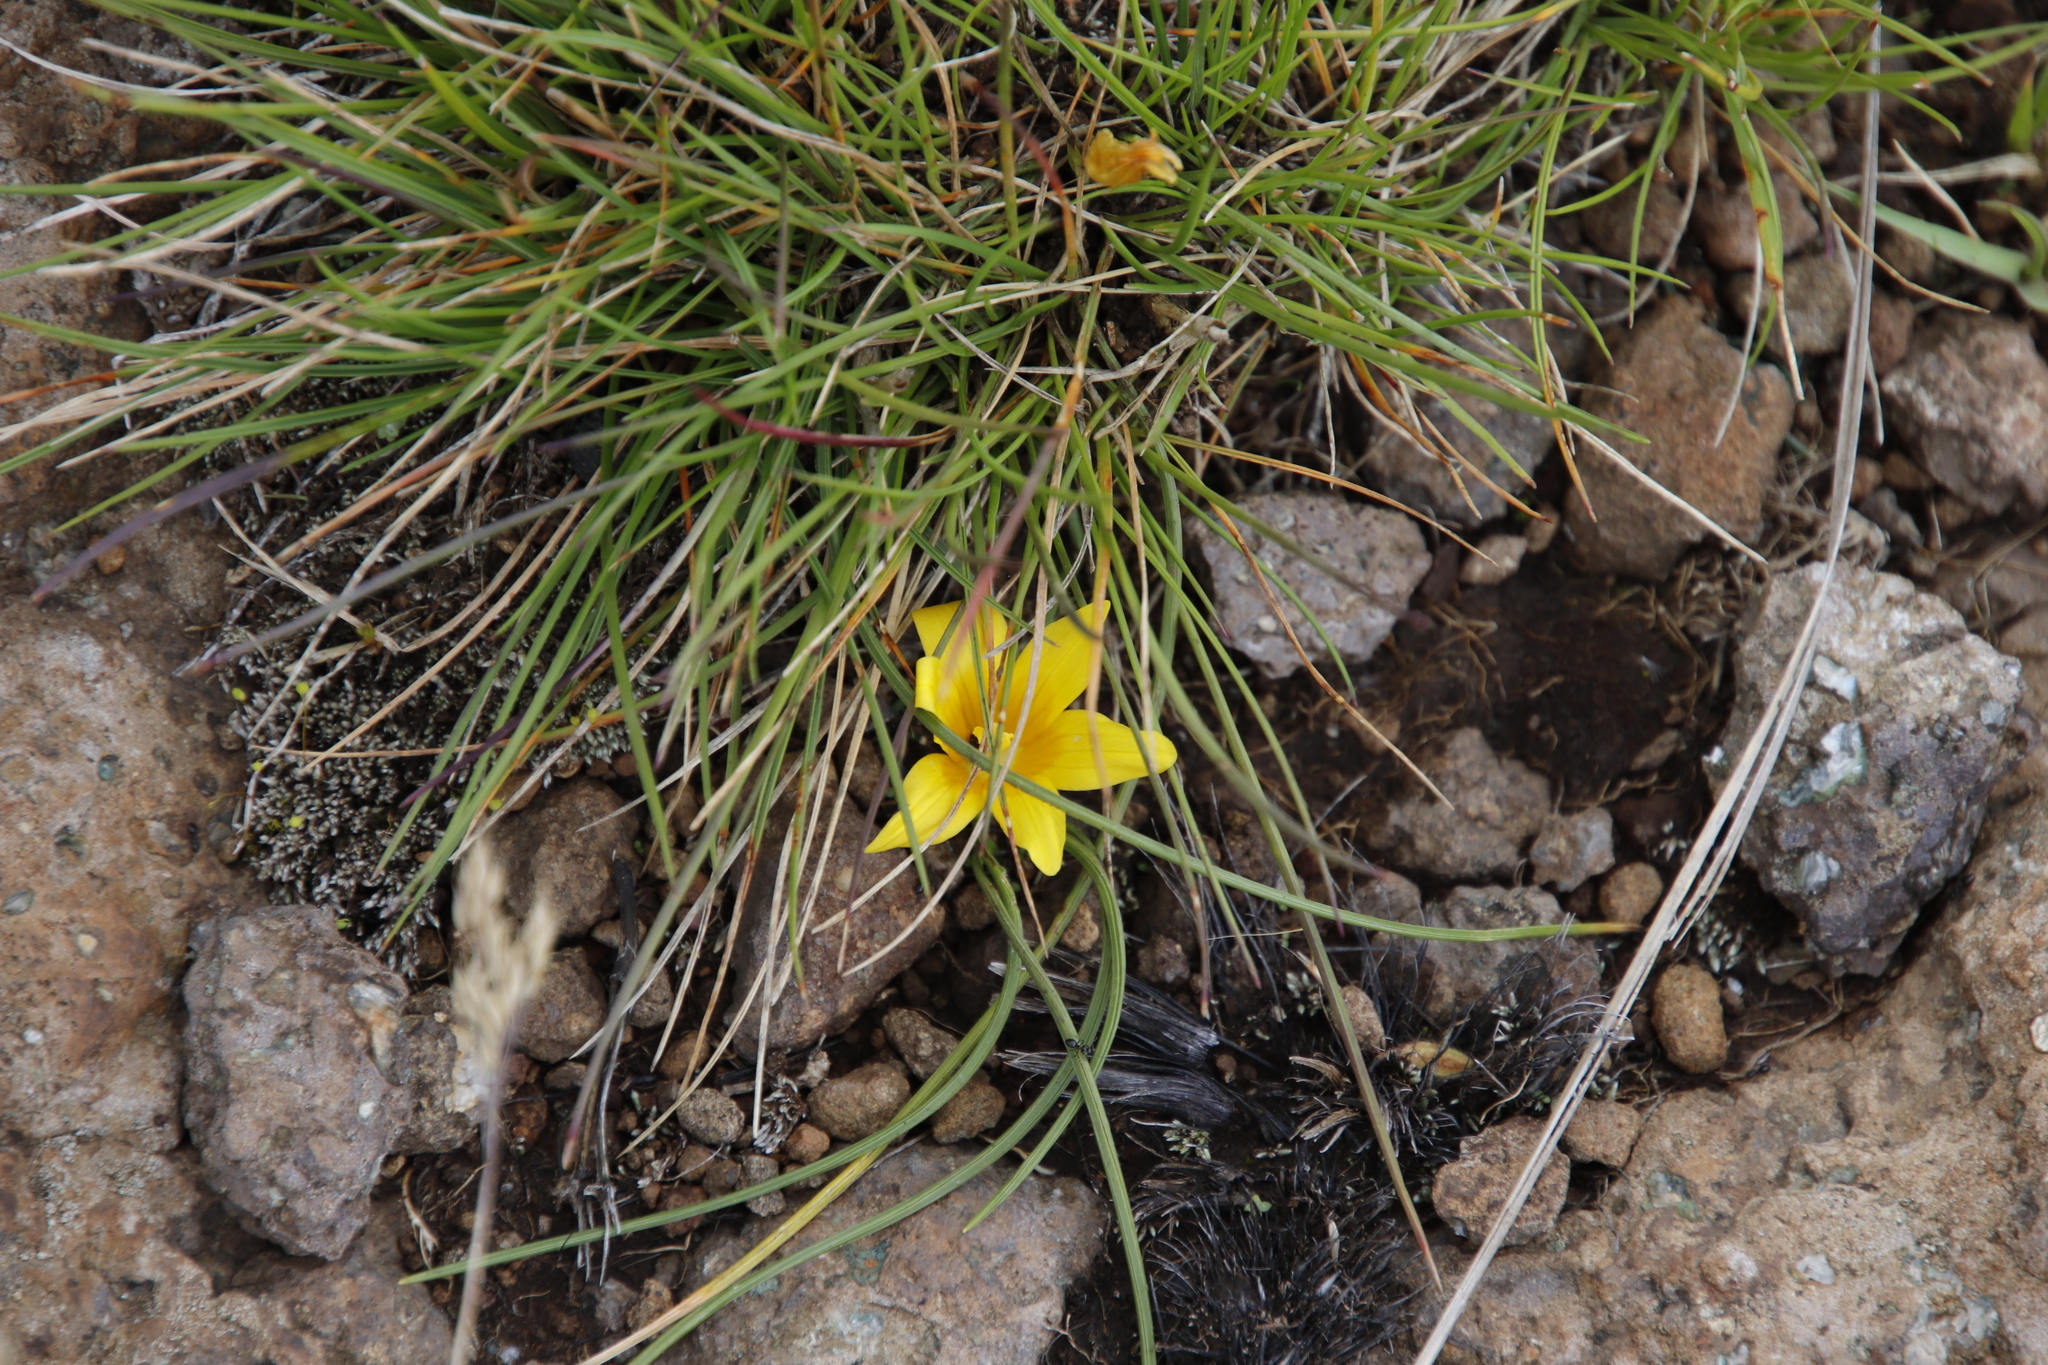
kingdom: Plantae
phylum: Tracheophyta
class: Liliopsida
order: Asparagales
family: Iridaceae
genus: Romulea
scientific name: Romulea macowanii
